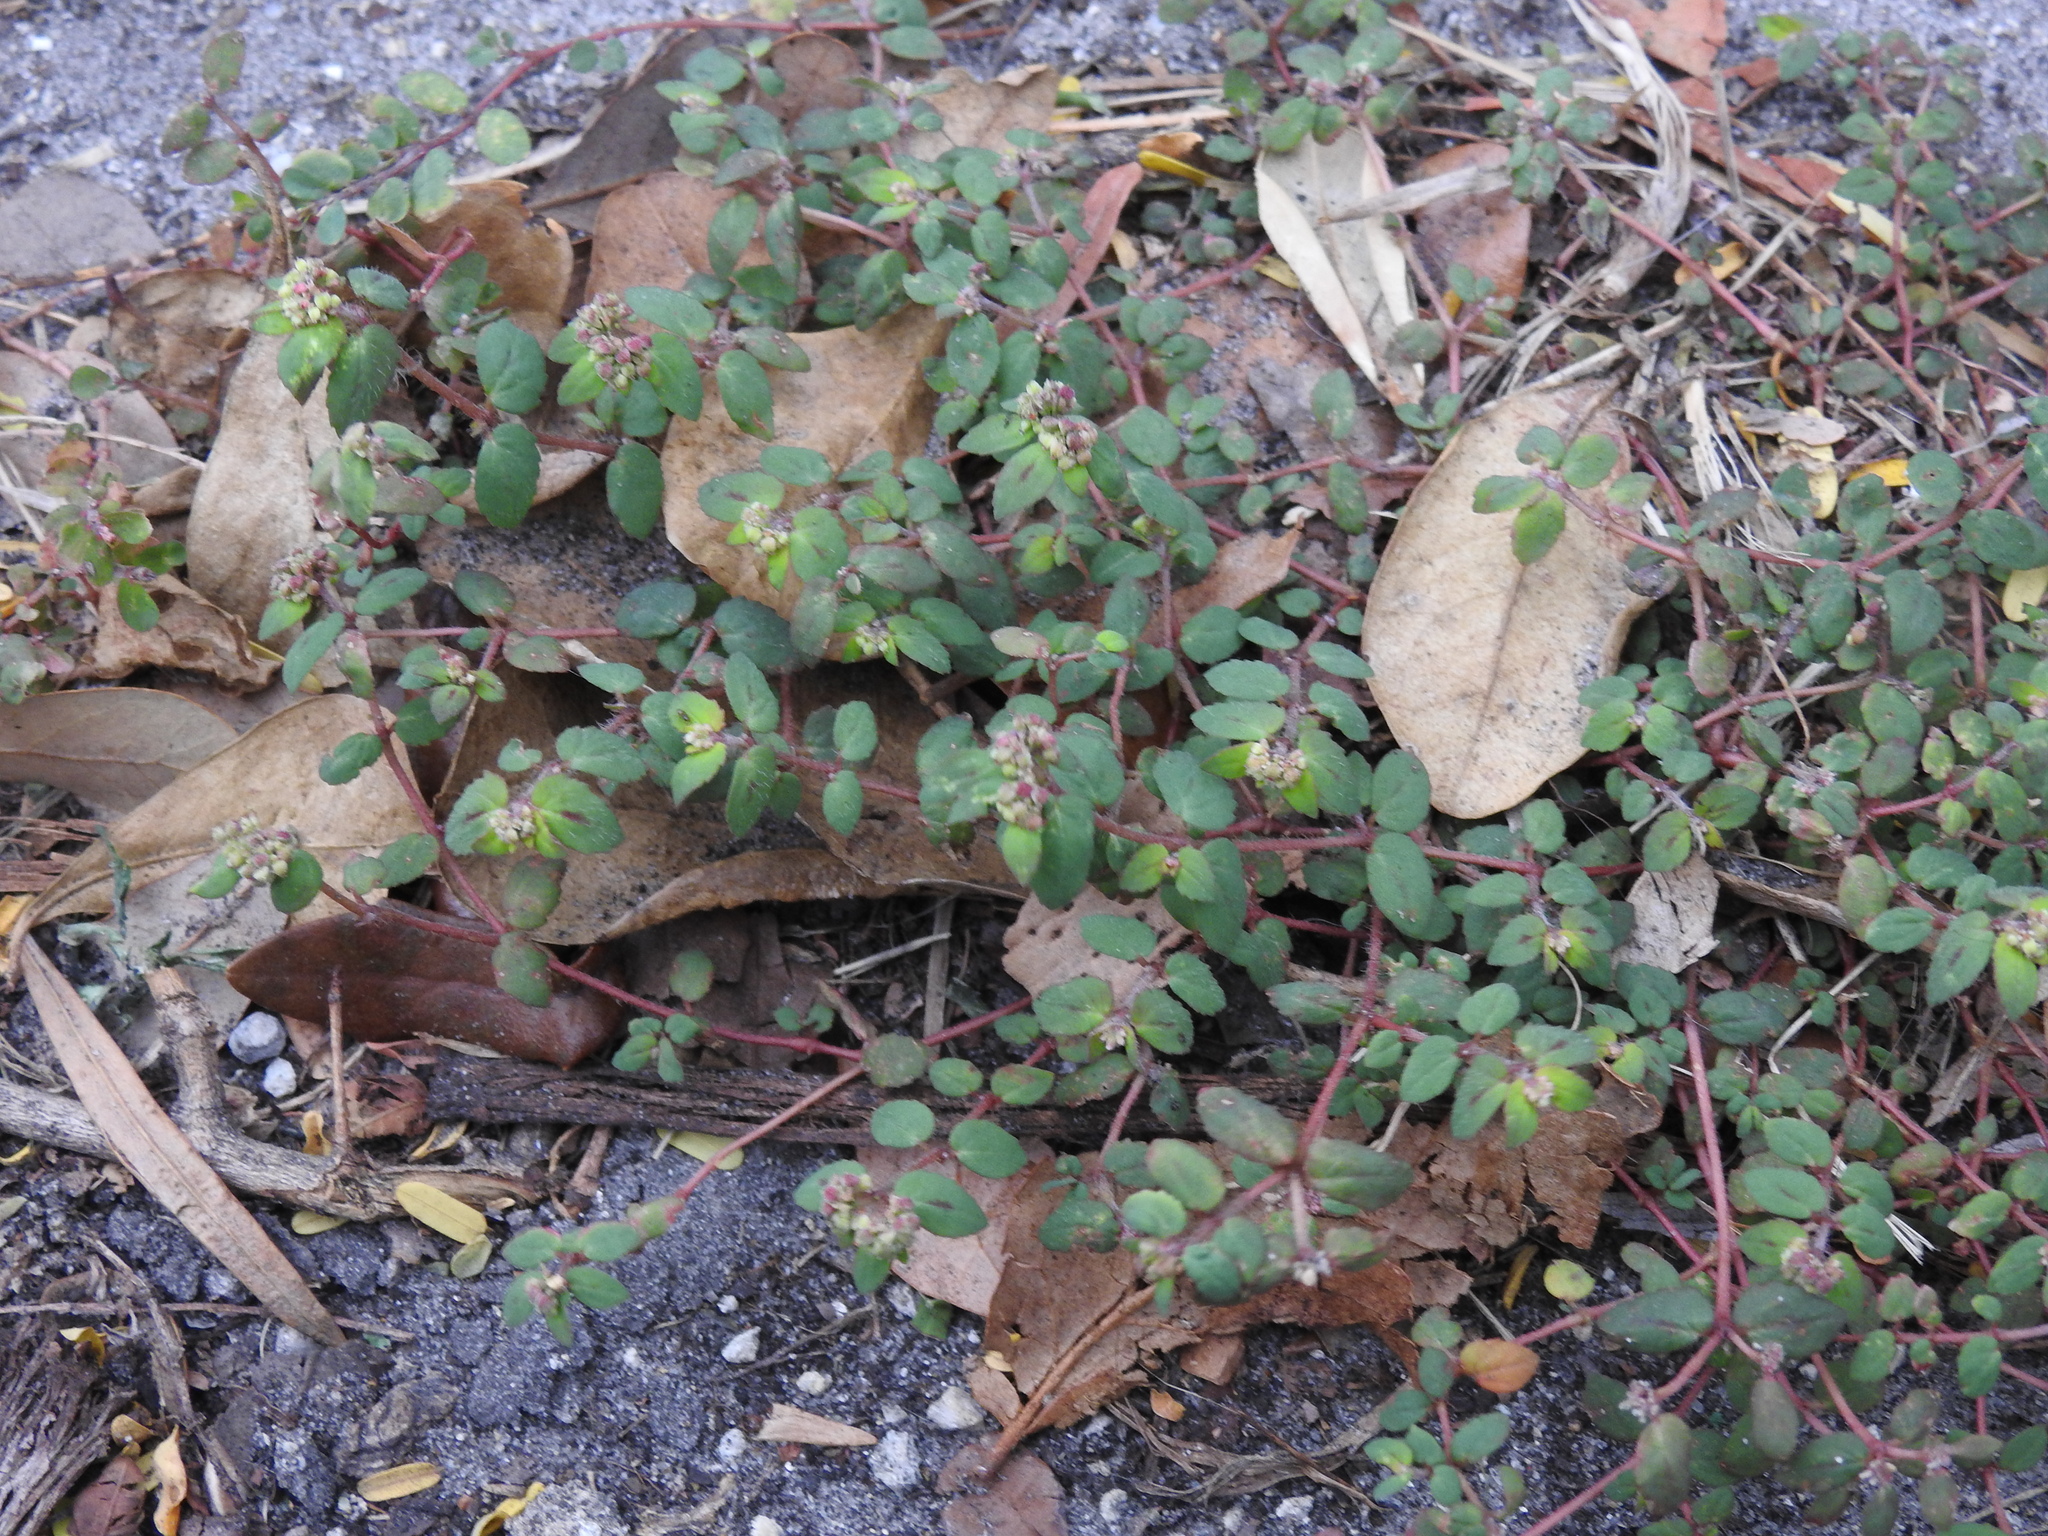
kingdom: Plantae
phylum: Tracheophyta
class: Magnoliopsida
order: Malpighiales
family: Euphorbiaceae
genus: Euphorbia
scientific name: Euphorbia ophthalmica
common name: Florida hammock sandmat
